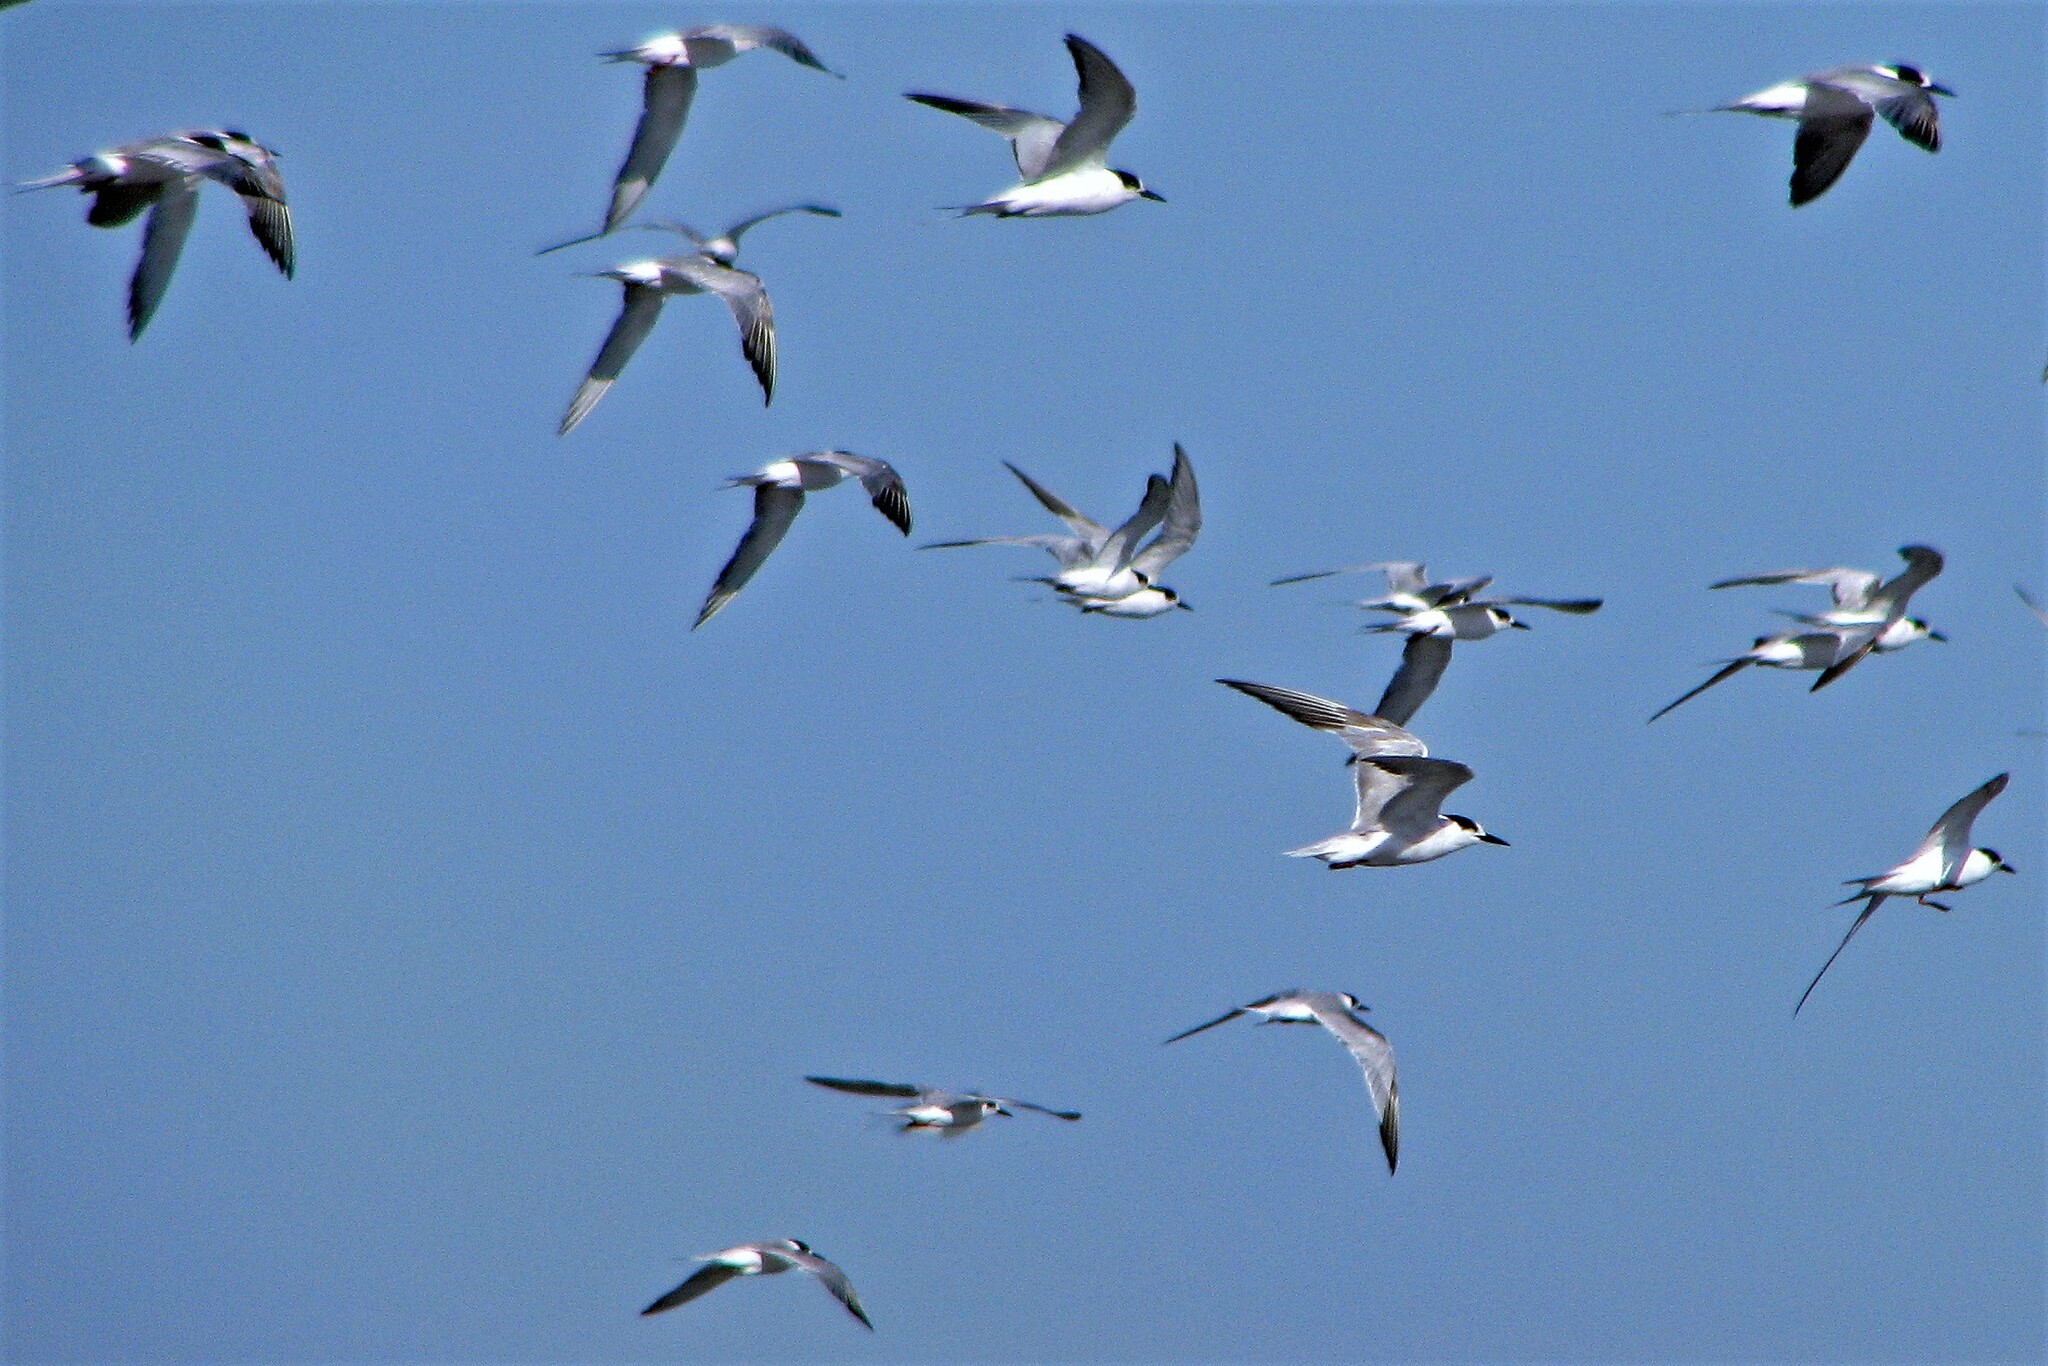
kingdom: Animalia
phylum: Chordata
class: Aves
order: Charadriiformes
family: Laridae
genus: Sterna
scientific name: Sterna hirundo
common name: Common tern
